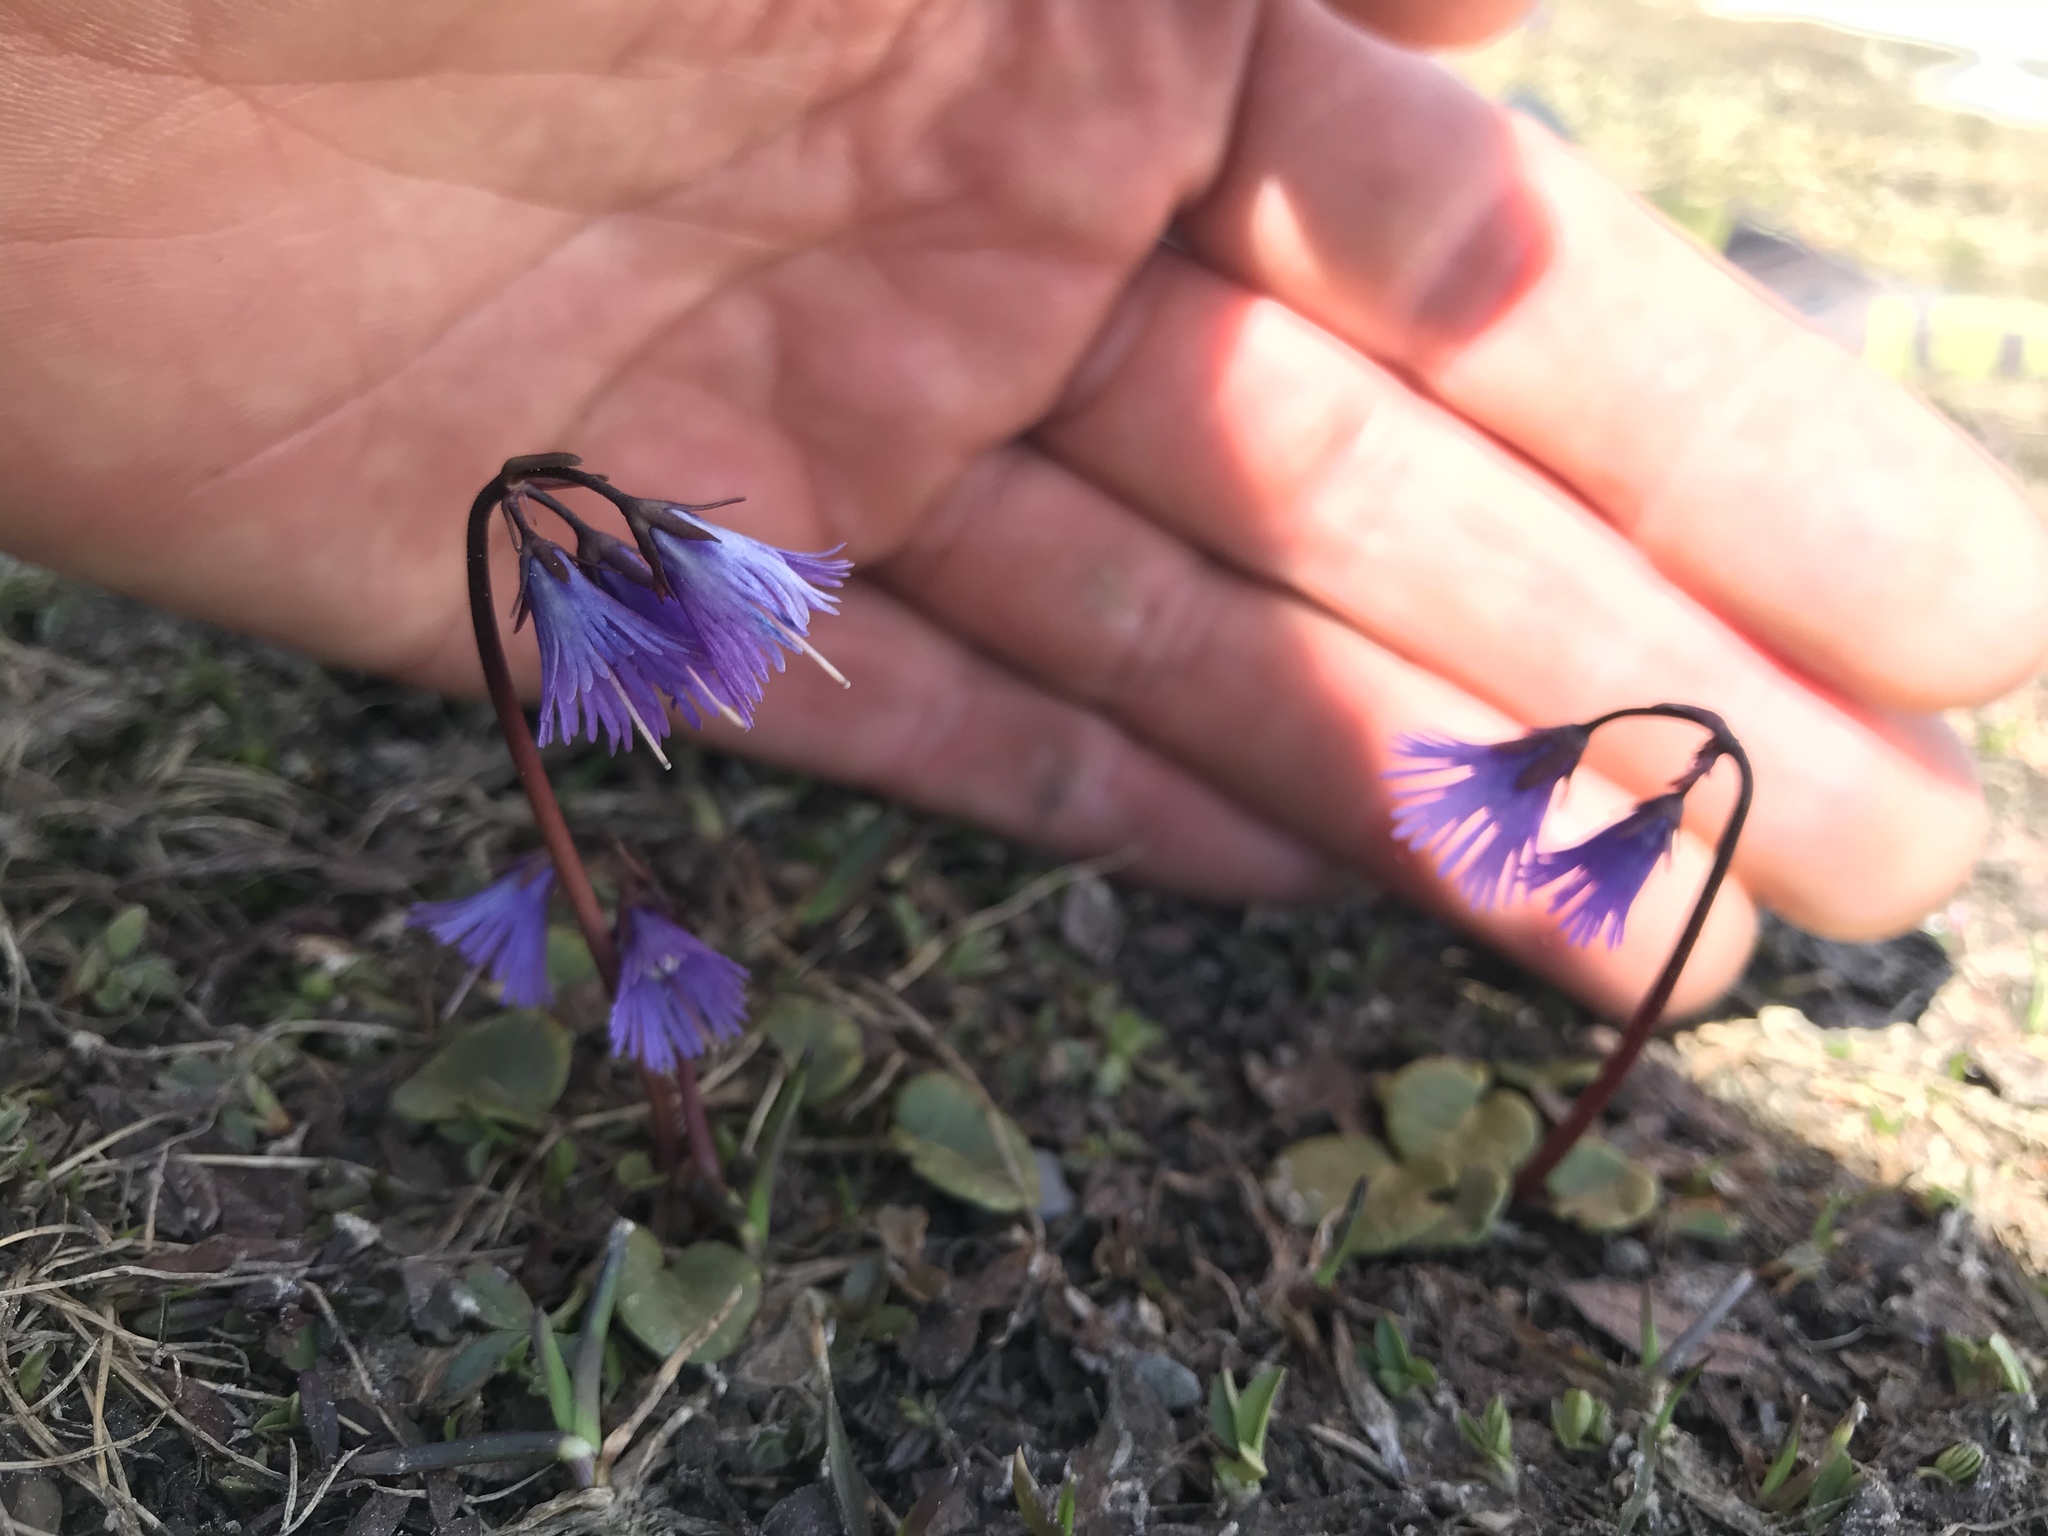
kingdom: Plantae
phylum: Tracheophyta
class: Magnoliopsida
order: Ericales
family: Primulaceae
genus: Soldanella
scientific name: Soldanella alpina
